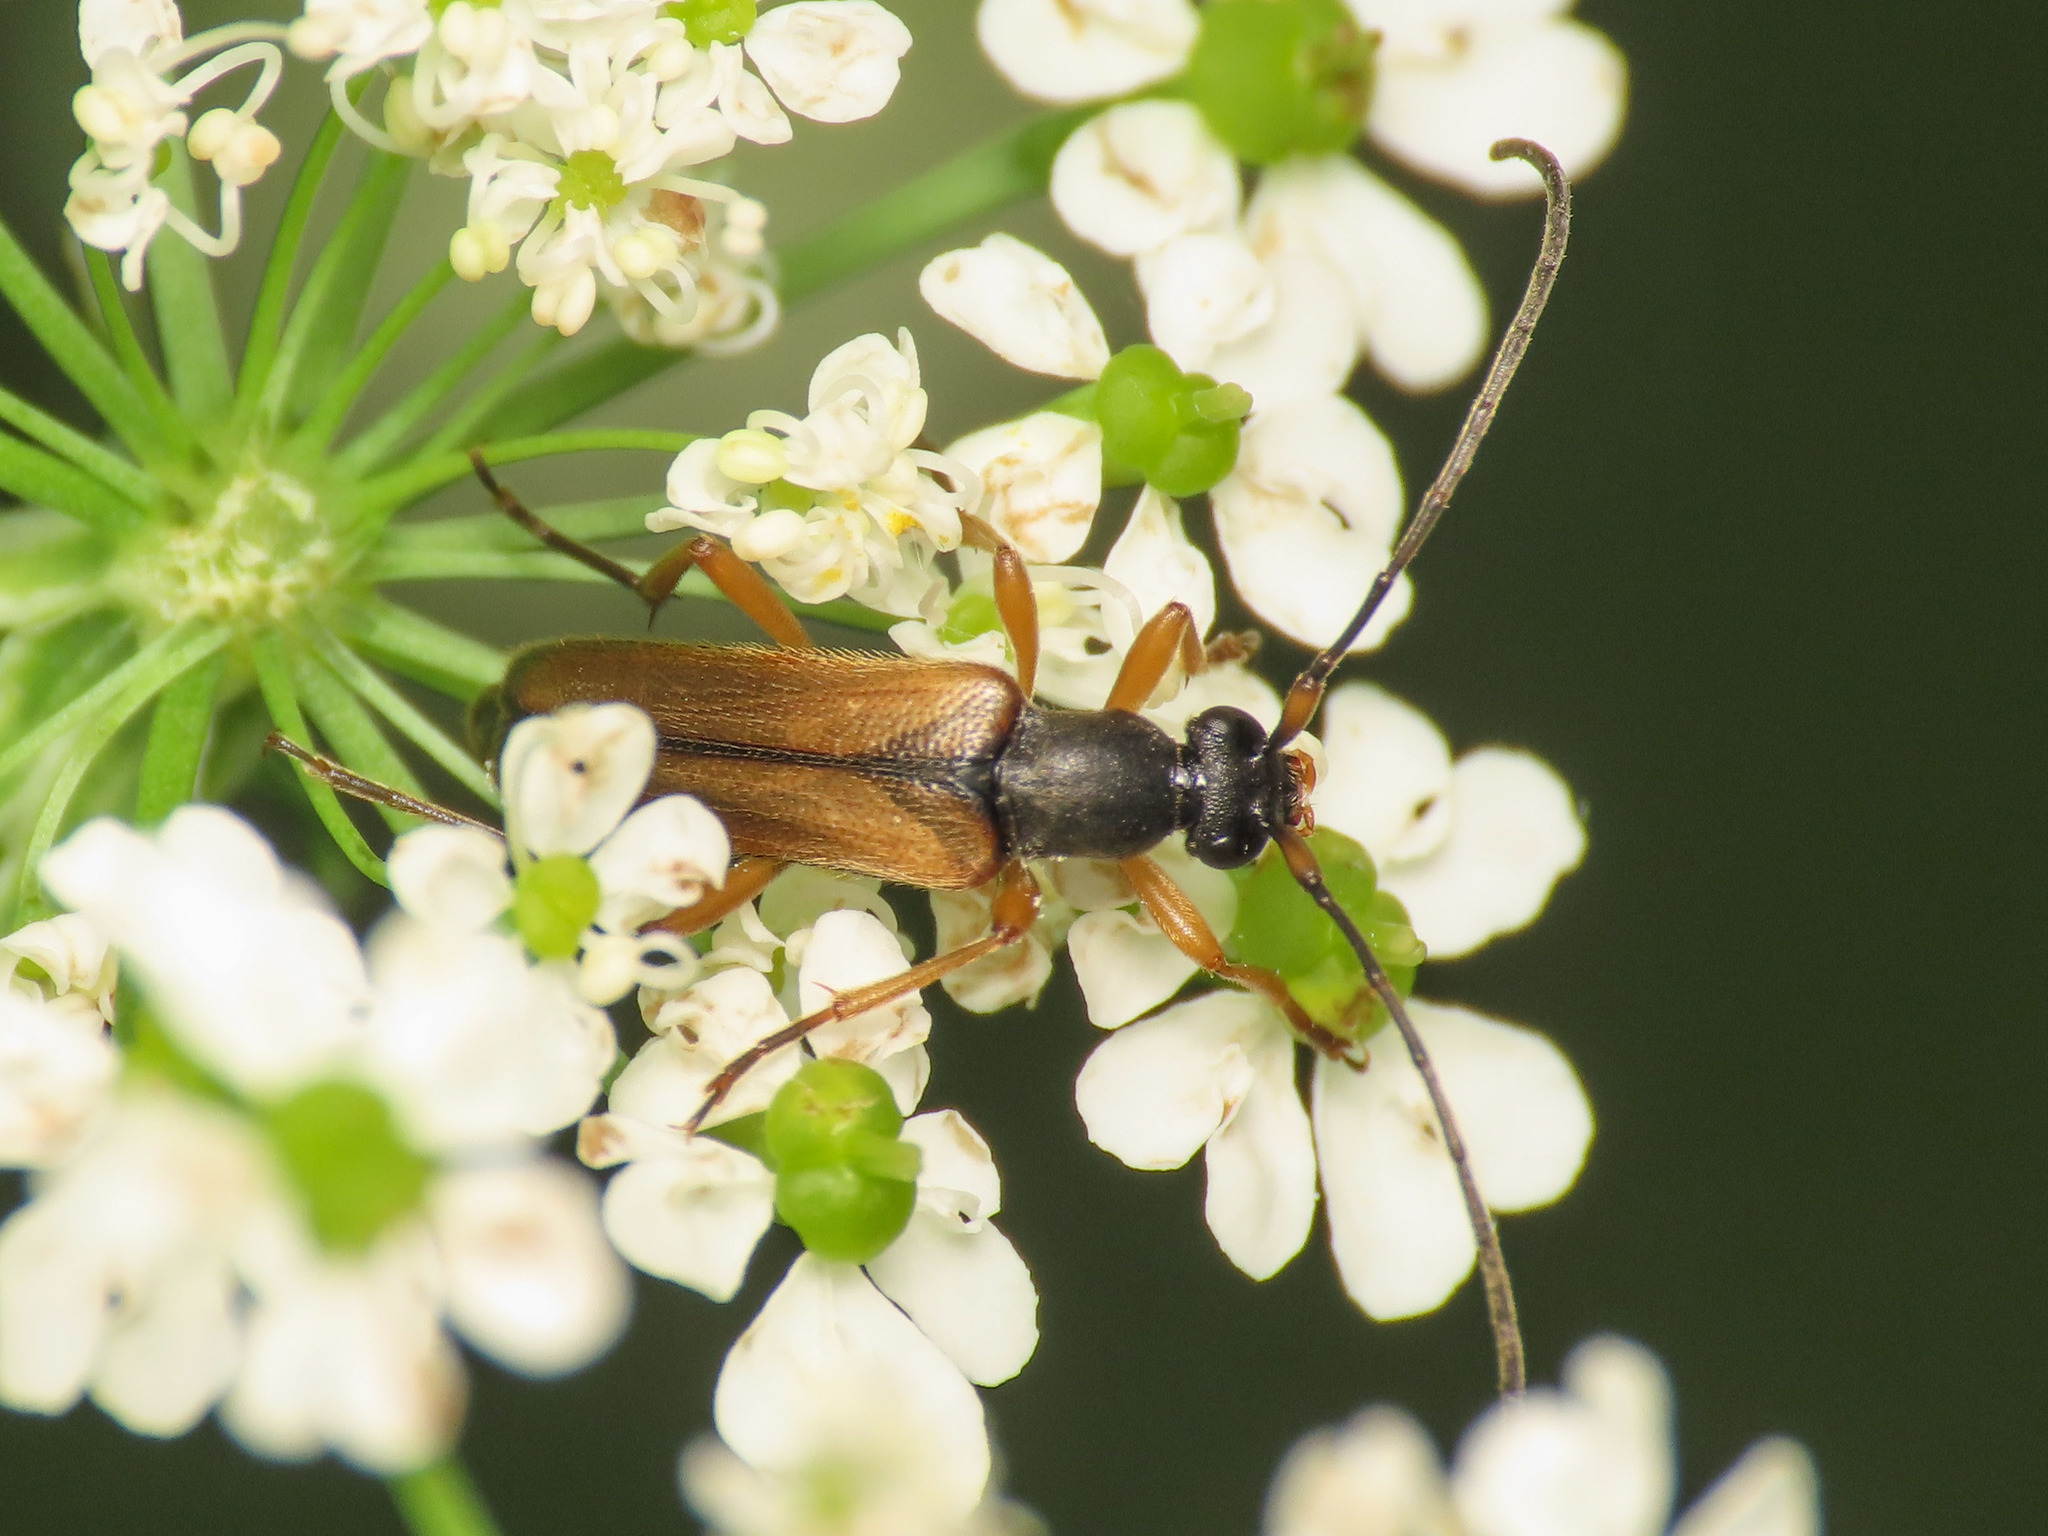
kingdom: Animalia
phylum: Arthropoda
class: Insecta
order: Coleoptera
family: Cerambycidae
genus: Alosterna
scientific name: Alosterna tabacicolor
